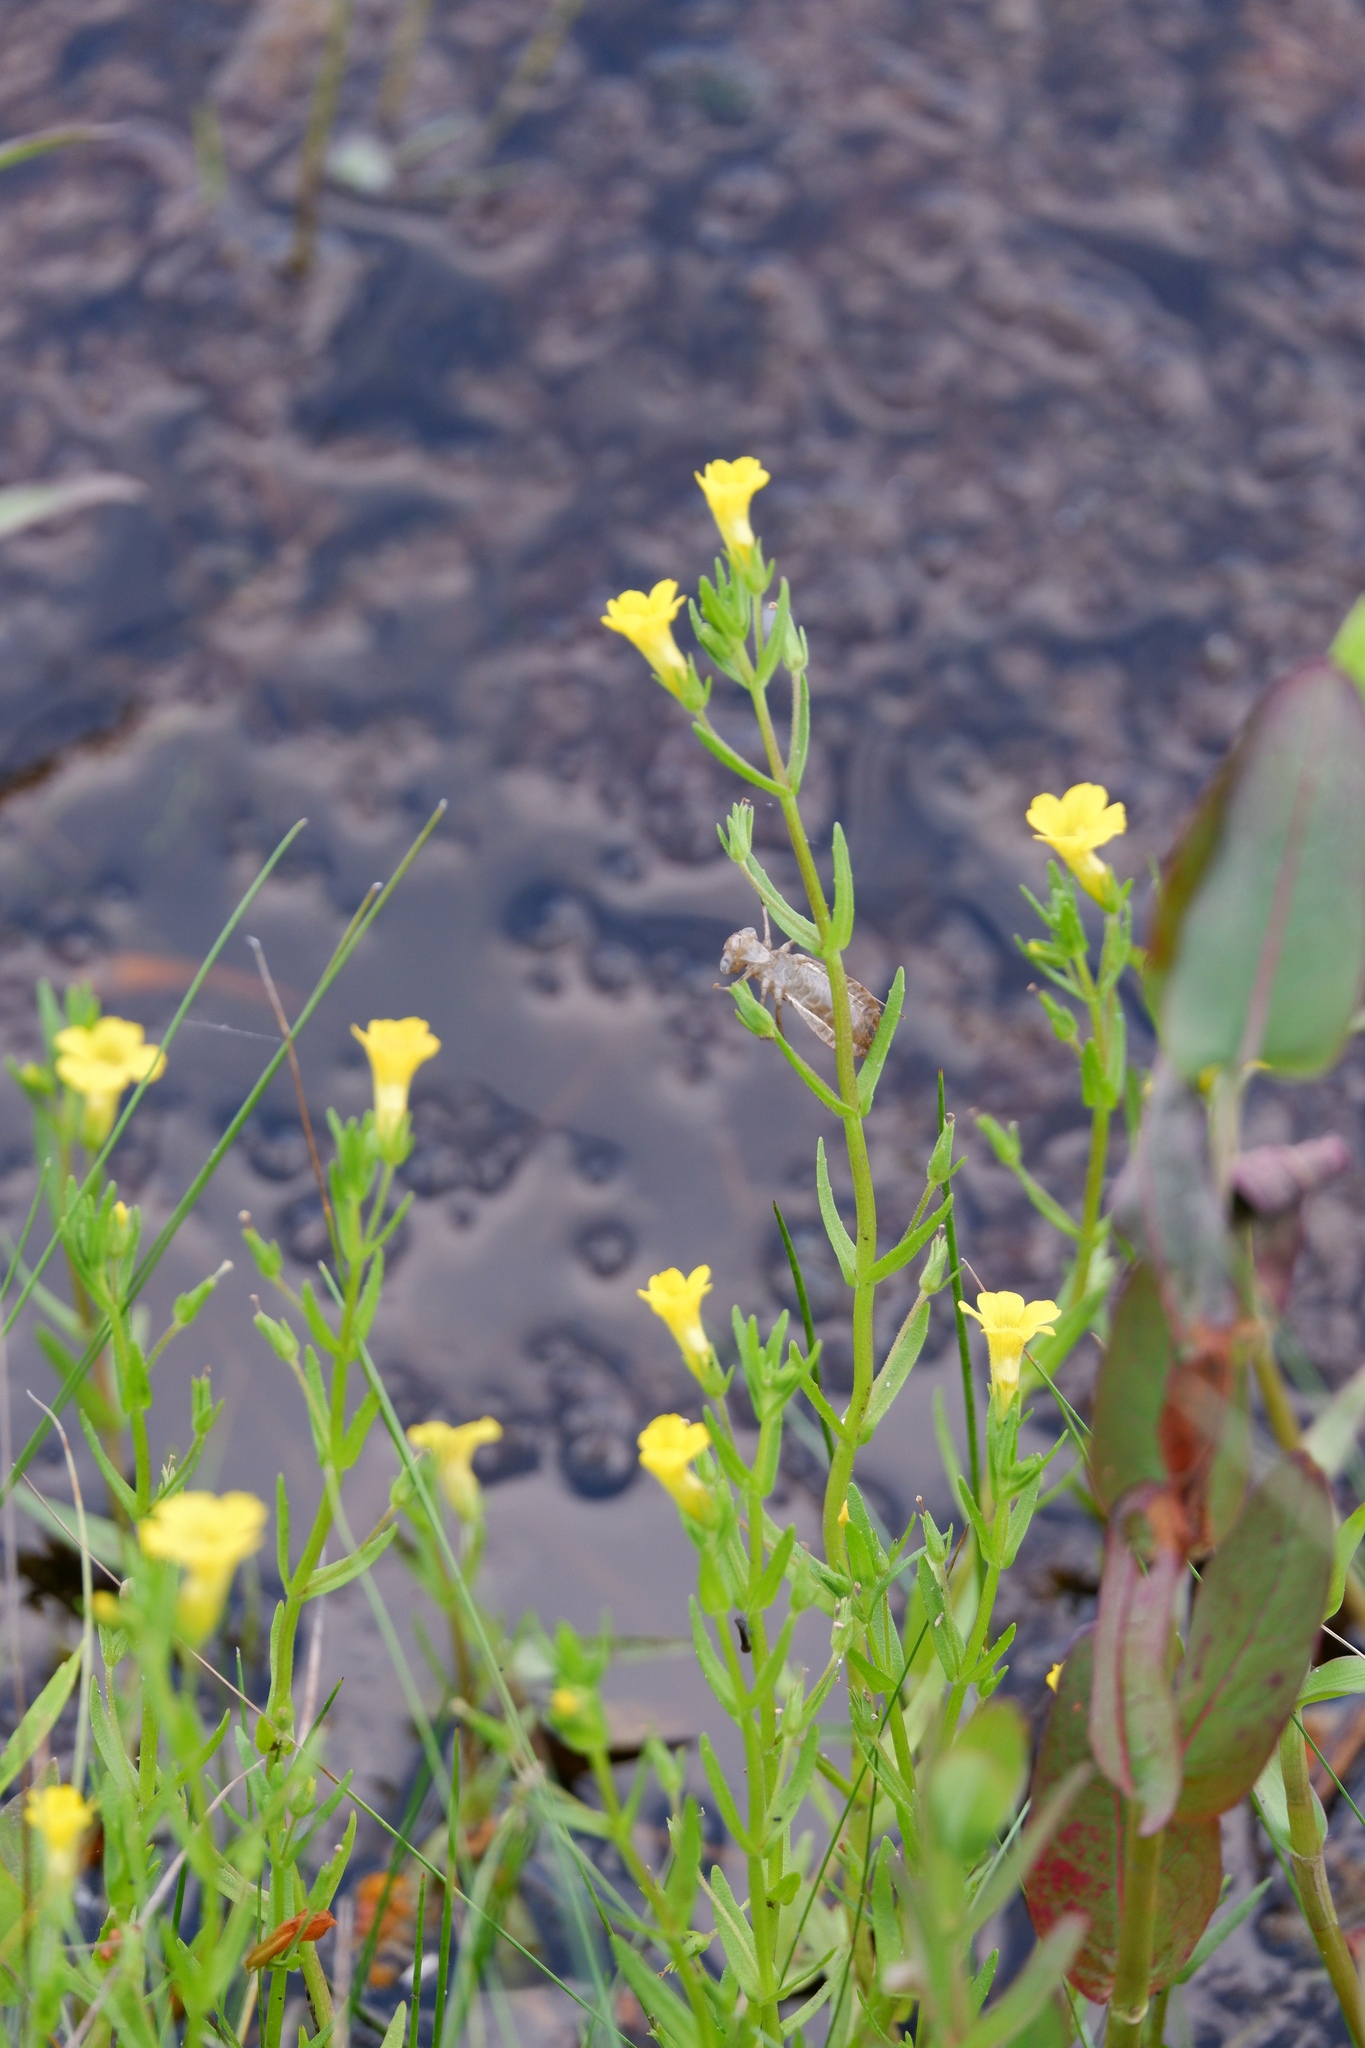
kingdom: Plantae
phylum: Tracheophyta
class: Magnoliopsida
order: Lamiales
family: Plantaginaceae
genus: Gratiola
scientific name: Gratiola lutea
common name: Golden hedge-hyssop
